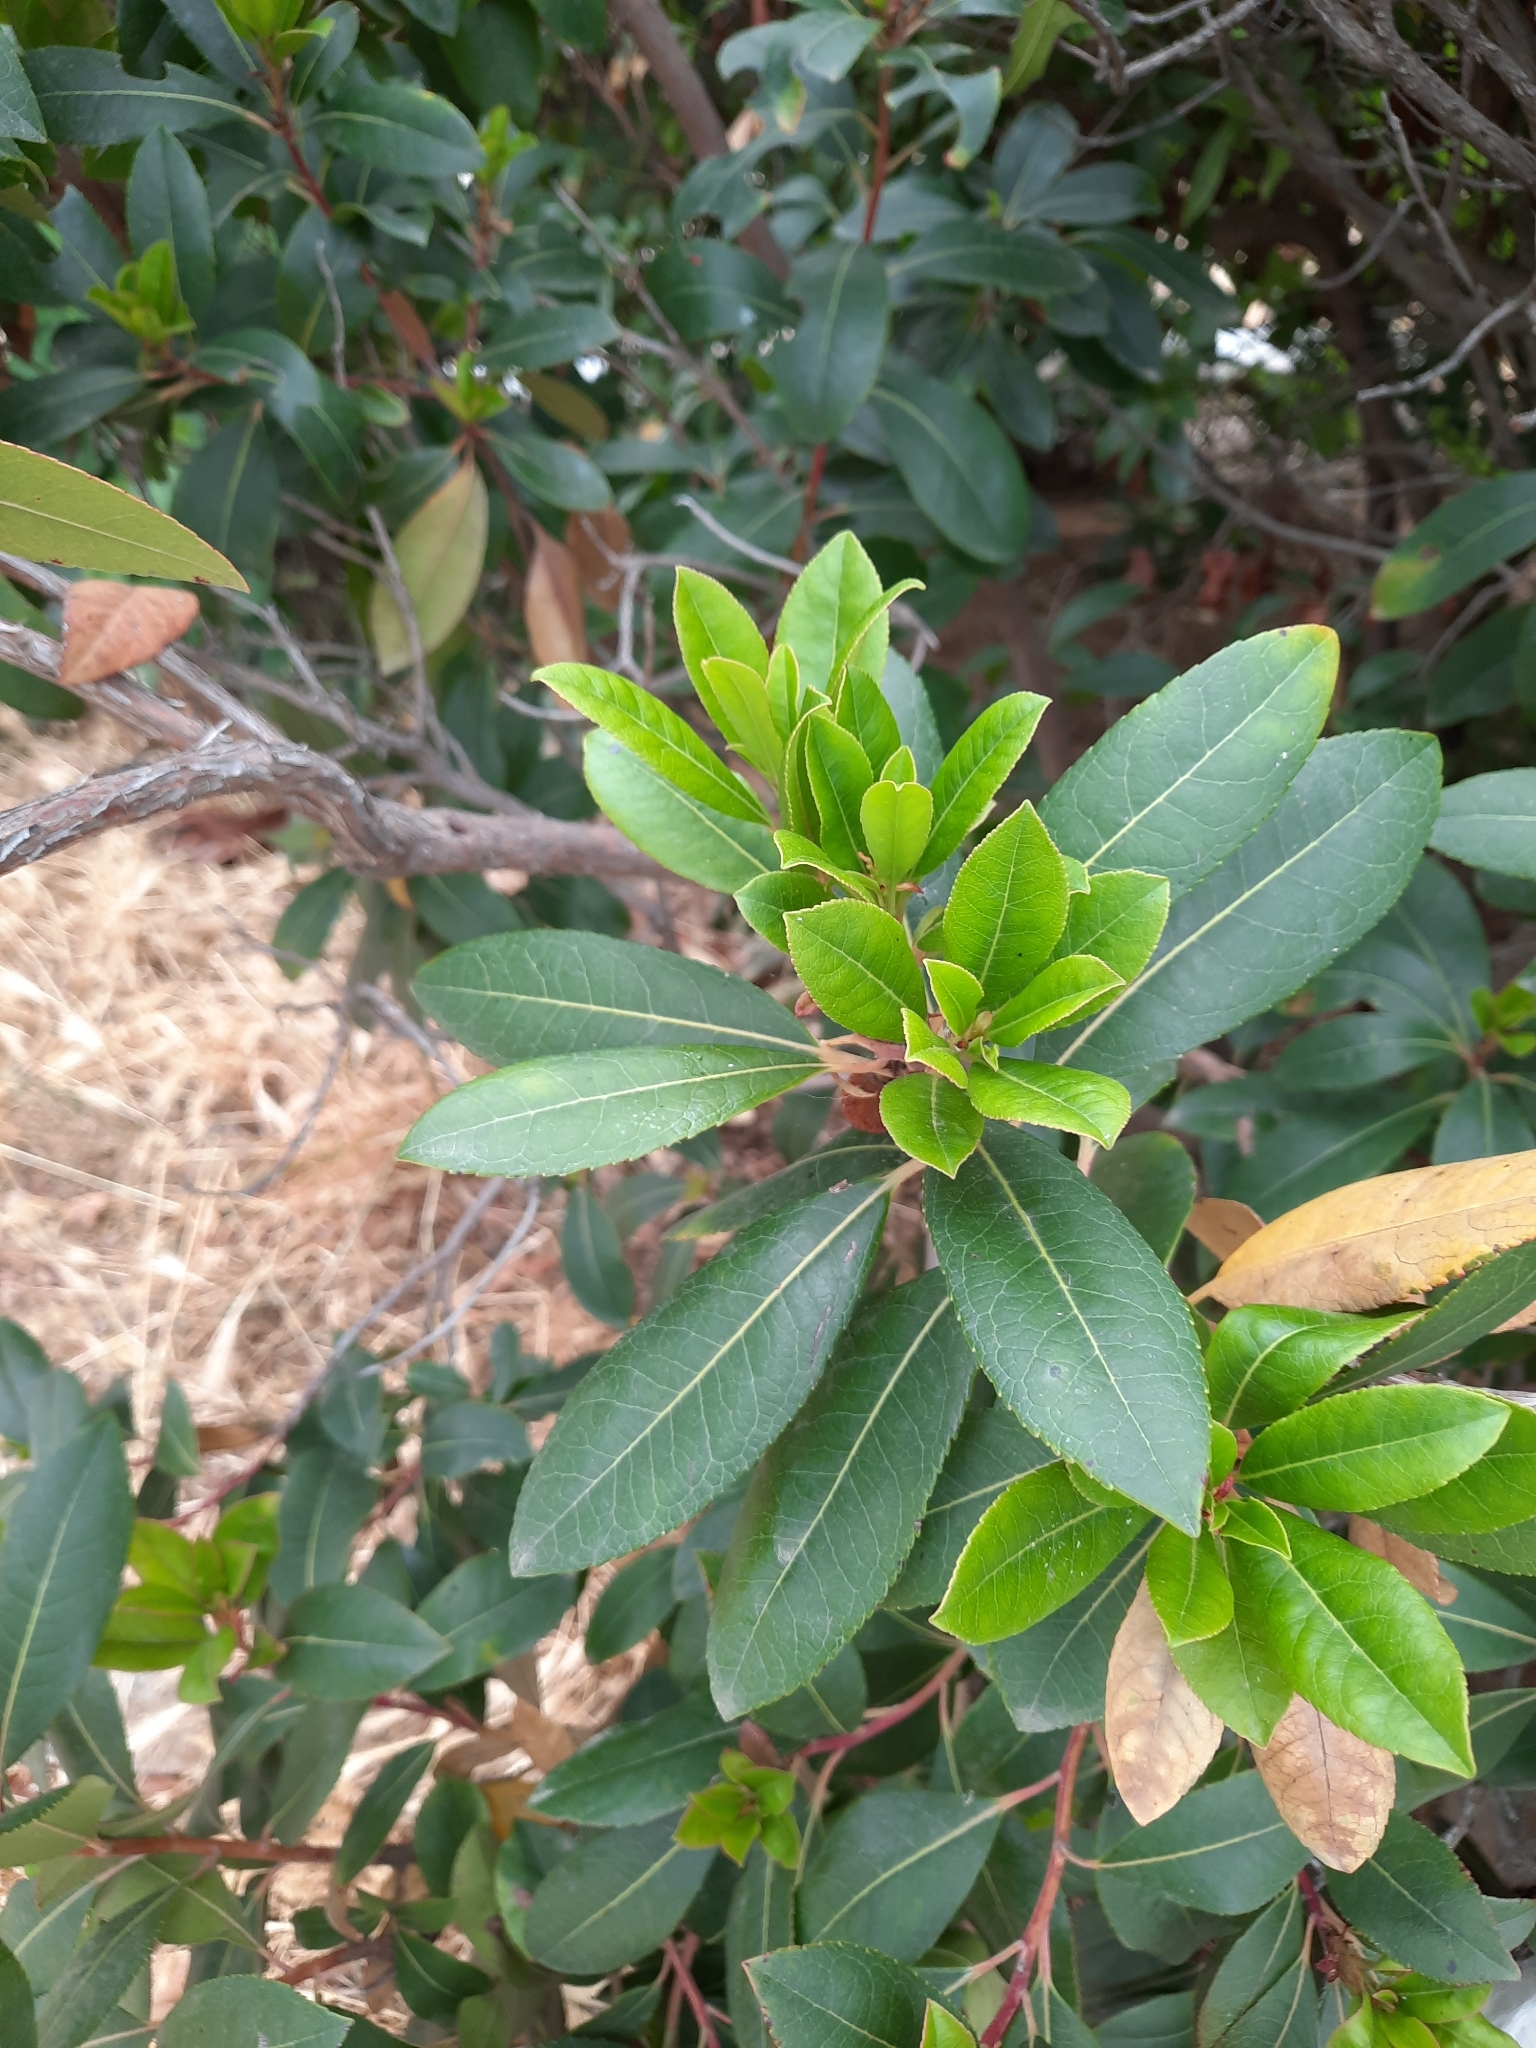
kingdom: Plantae
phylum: Tracheophyta
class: Magnoliopsida
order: Ericales
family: Ericaceae
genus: Arbutus
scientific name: Arbutus unedo
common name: Strawberry-tree
